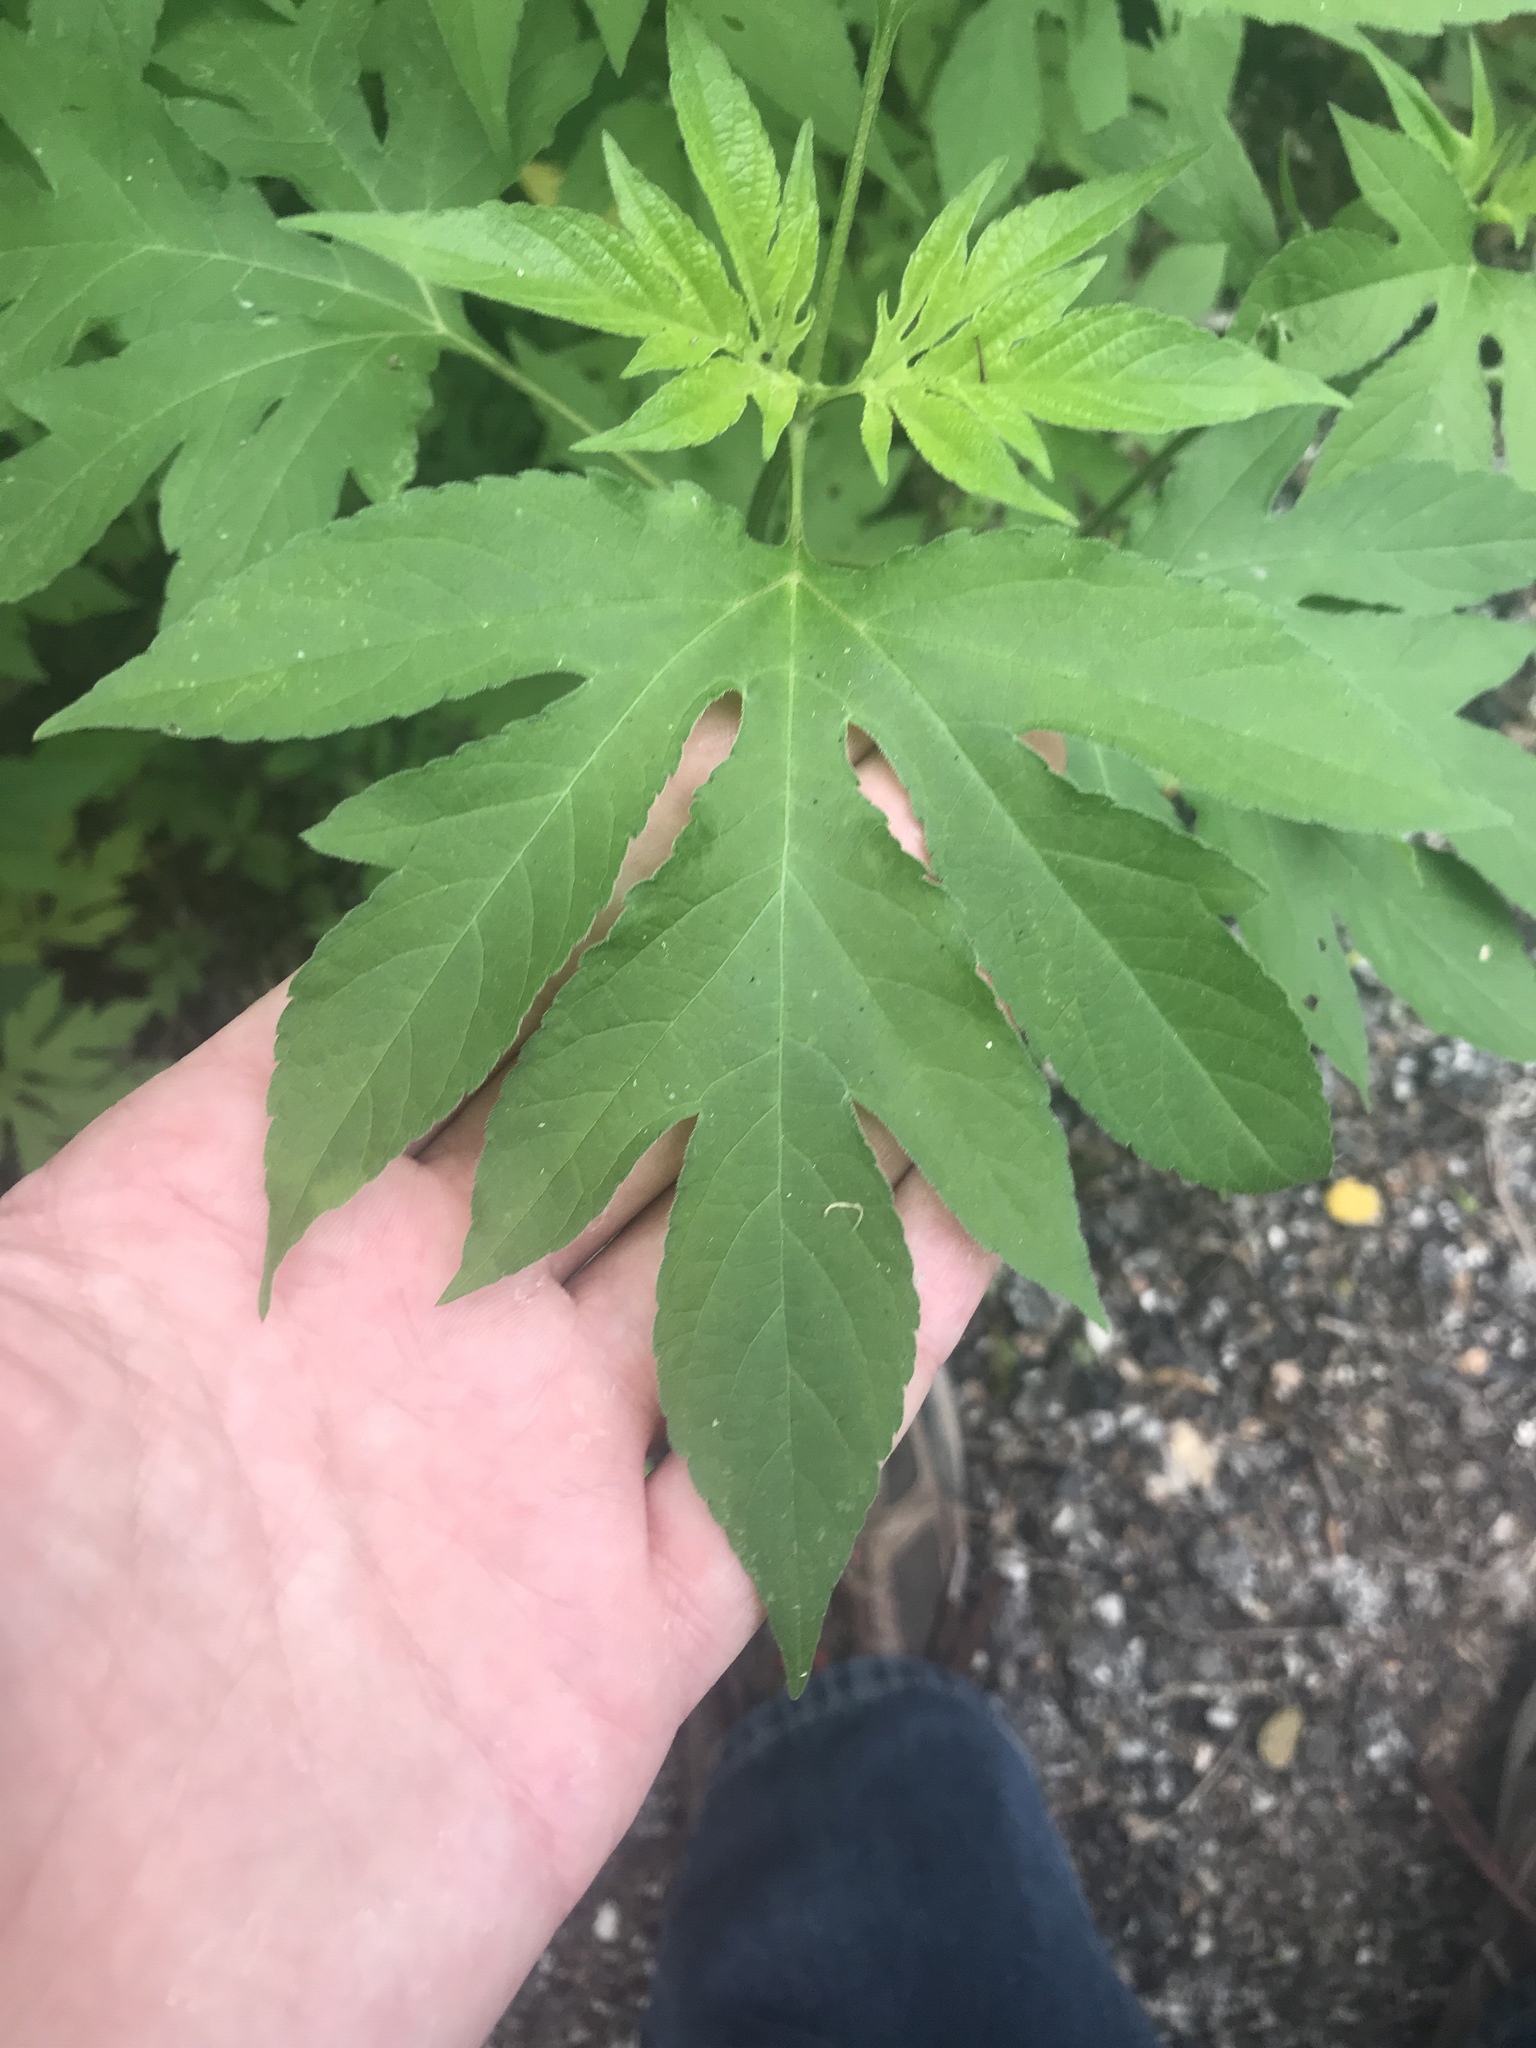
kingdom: Plantae
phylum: Tracheophyta
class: Magnoliopsida
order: Asterales
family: Asteraceae
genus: Ambrosia
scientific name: Ambrosia trifida
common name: Giant ragweed
